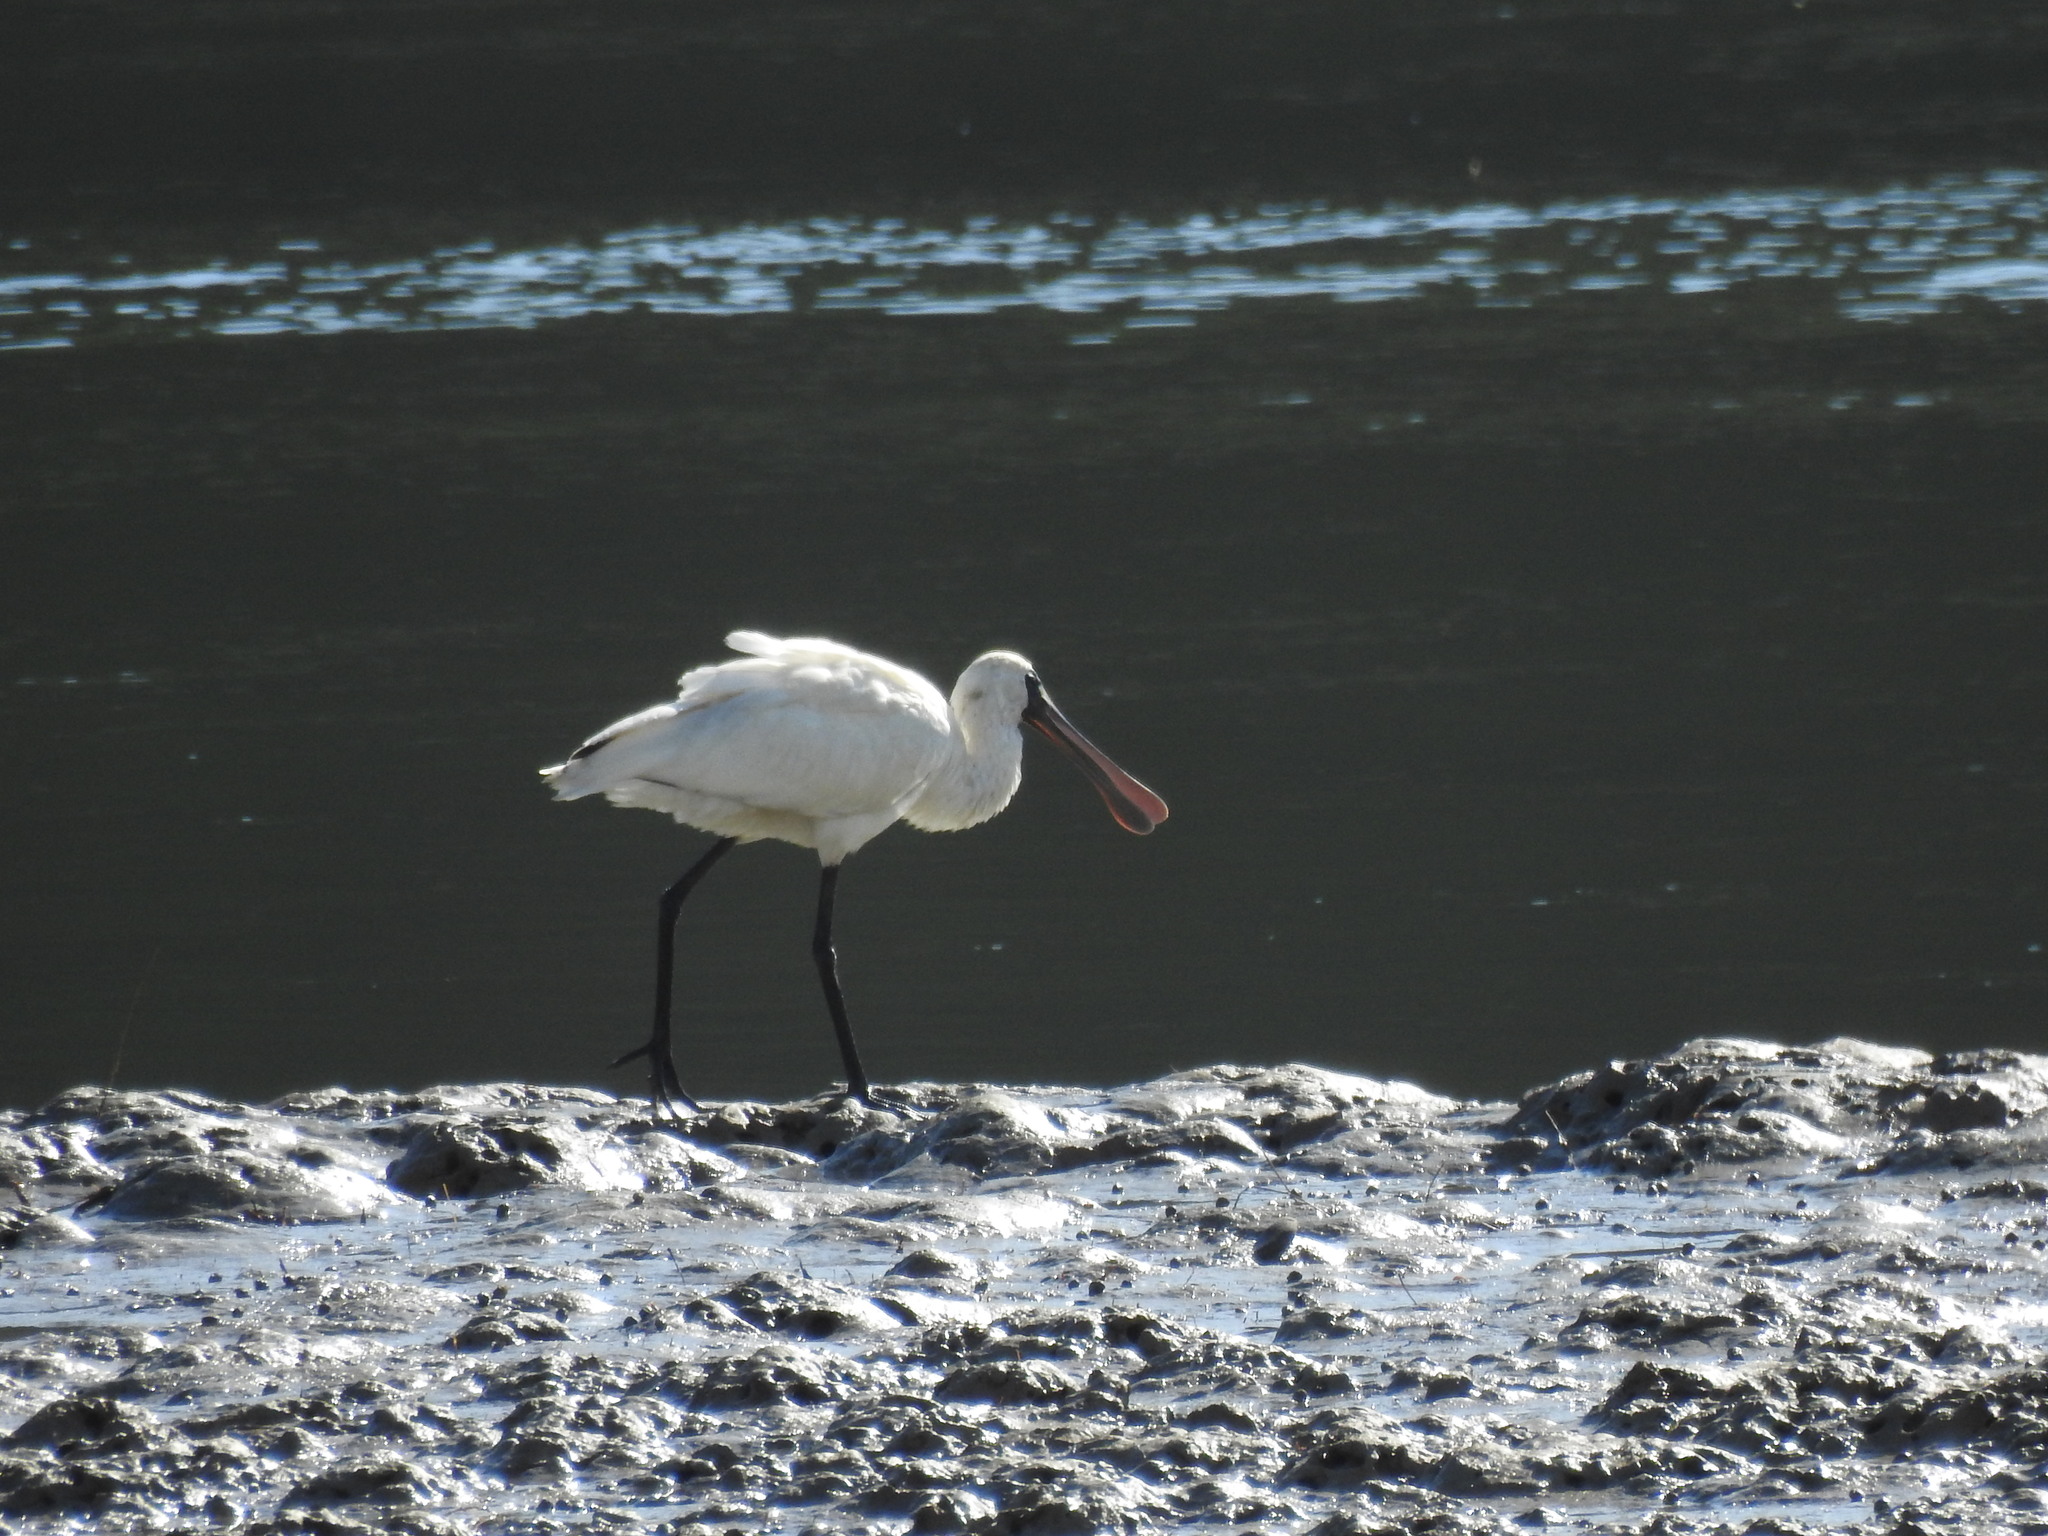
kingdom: Animalia
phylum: Chordata
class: Aves
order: Pelecaniformes
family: Threskiornithidae
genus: Platalea
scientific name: Platalea regia
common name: Royal spoonbill
